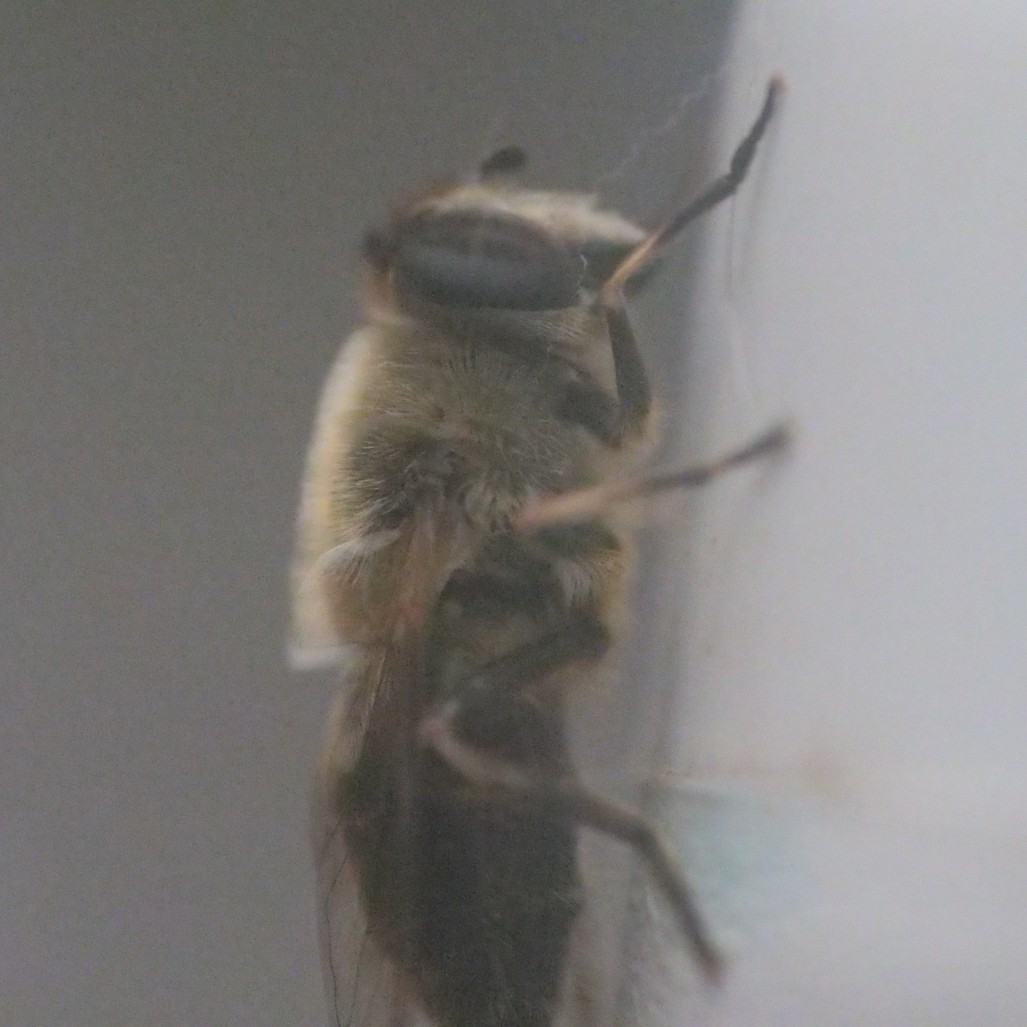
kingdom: Animalia
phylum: Arthropoda
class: Insecta
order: Diptera
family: Syrphidae
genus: Eristalis
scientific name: Eristalis tenax
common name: Drone fly
